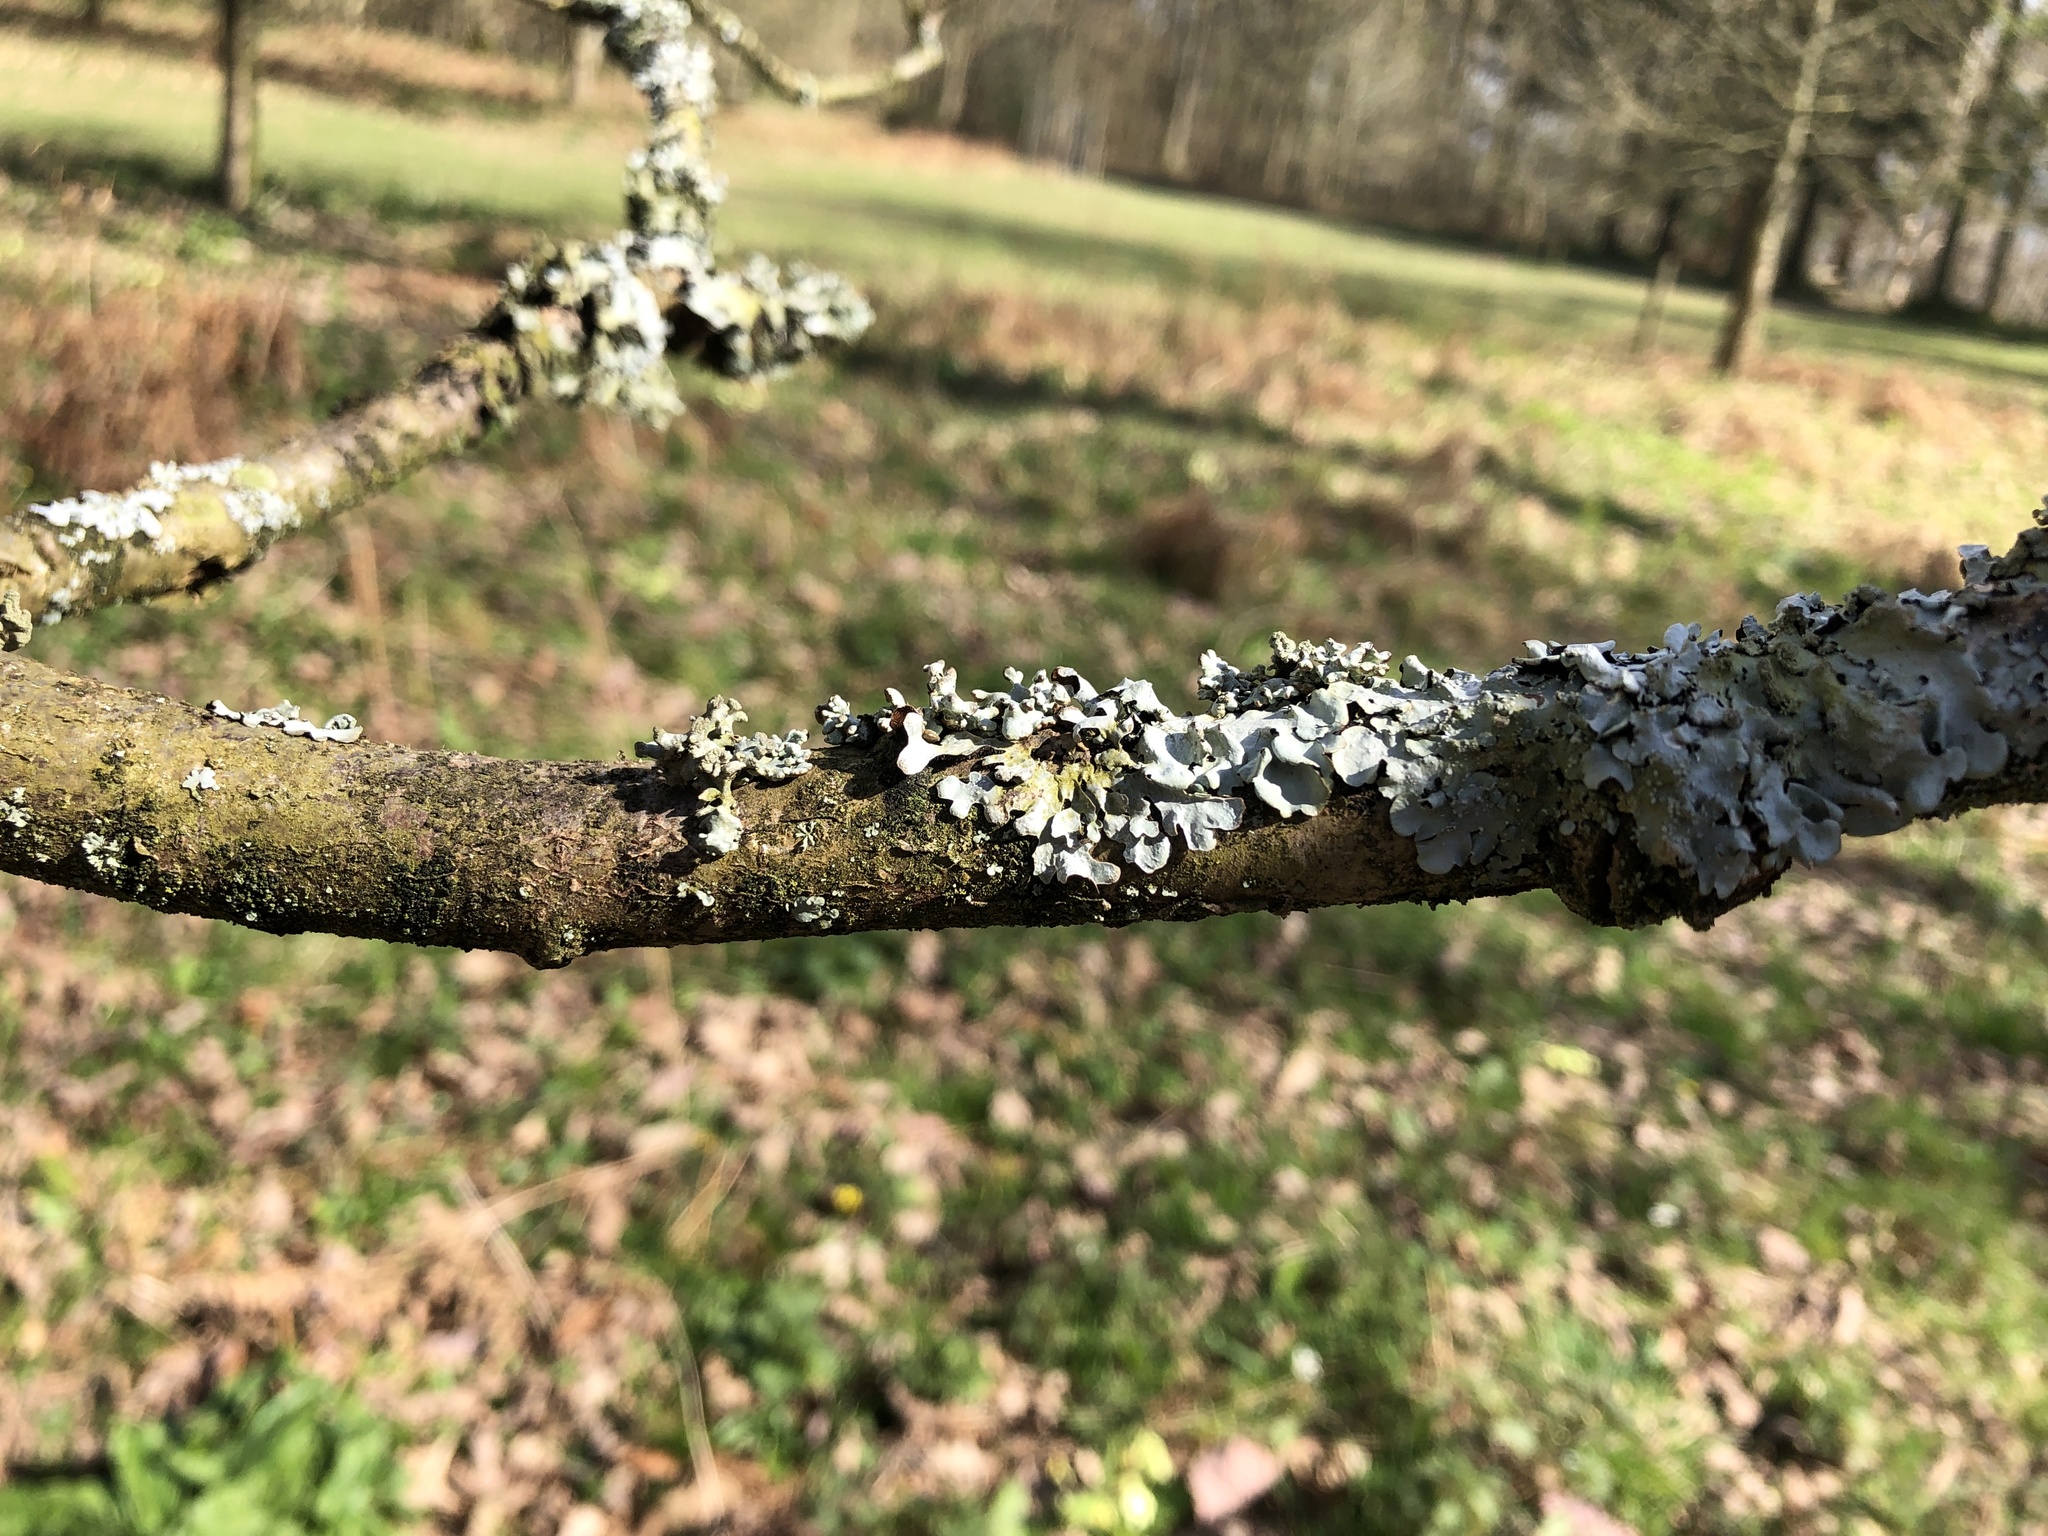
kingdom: Fungi
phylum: Ascomycota
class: Lecanoromycetes
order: Lecanorales
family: Parmeliaceae
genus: Parmelia
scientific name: Parmelia sulcata
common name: Netted shield lichen
